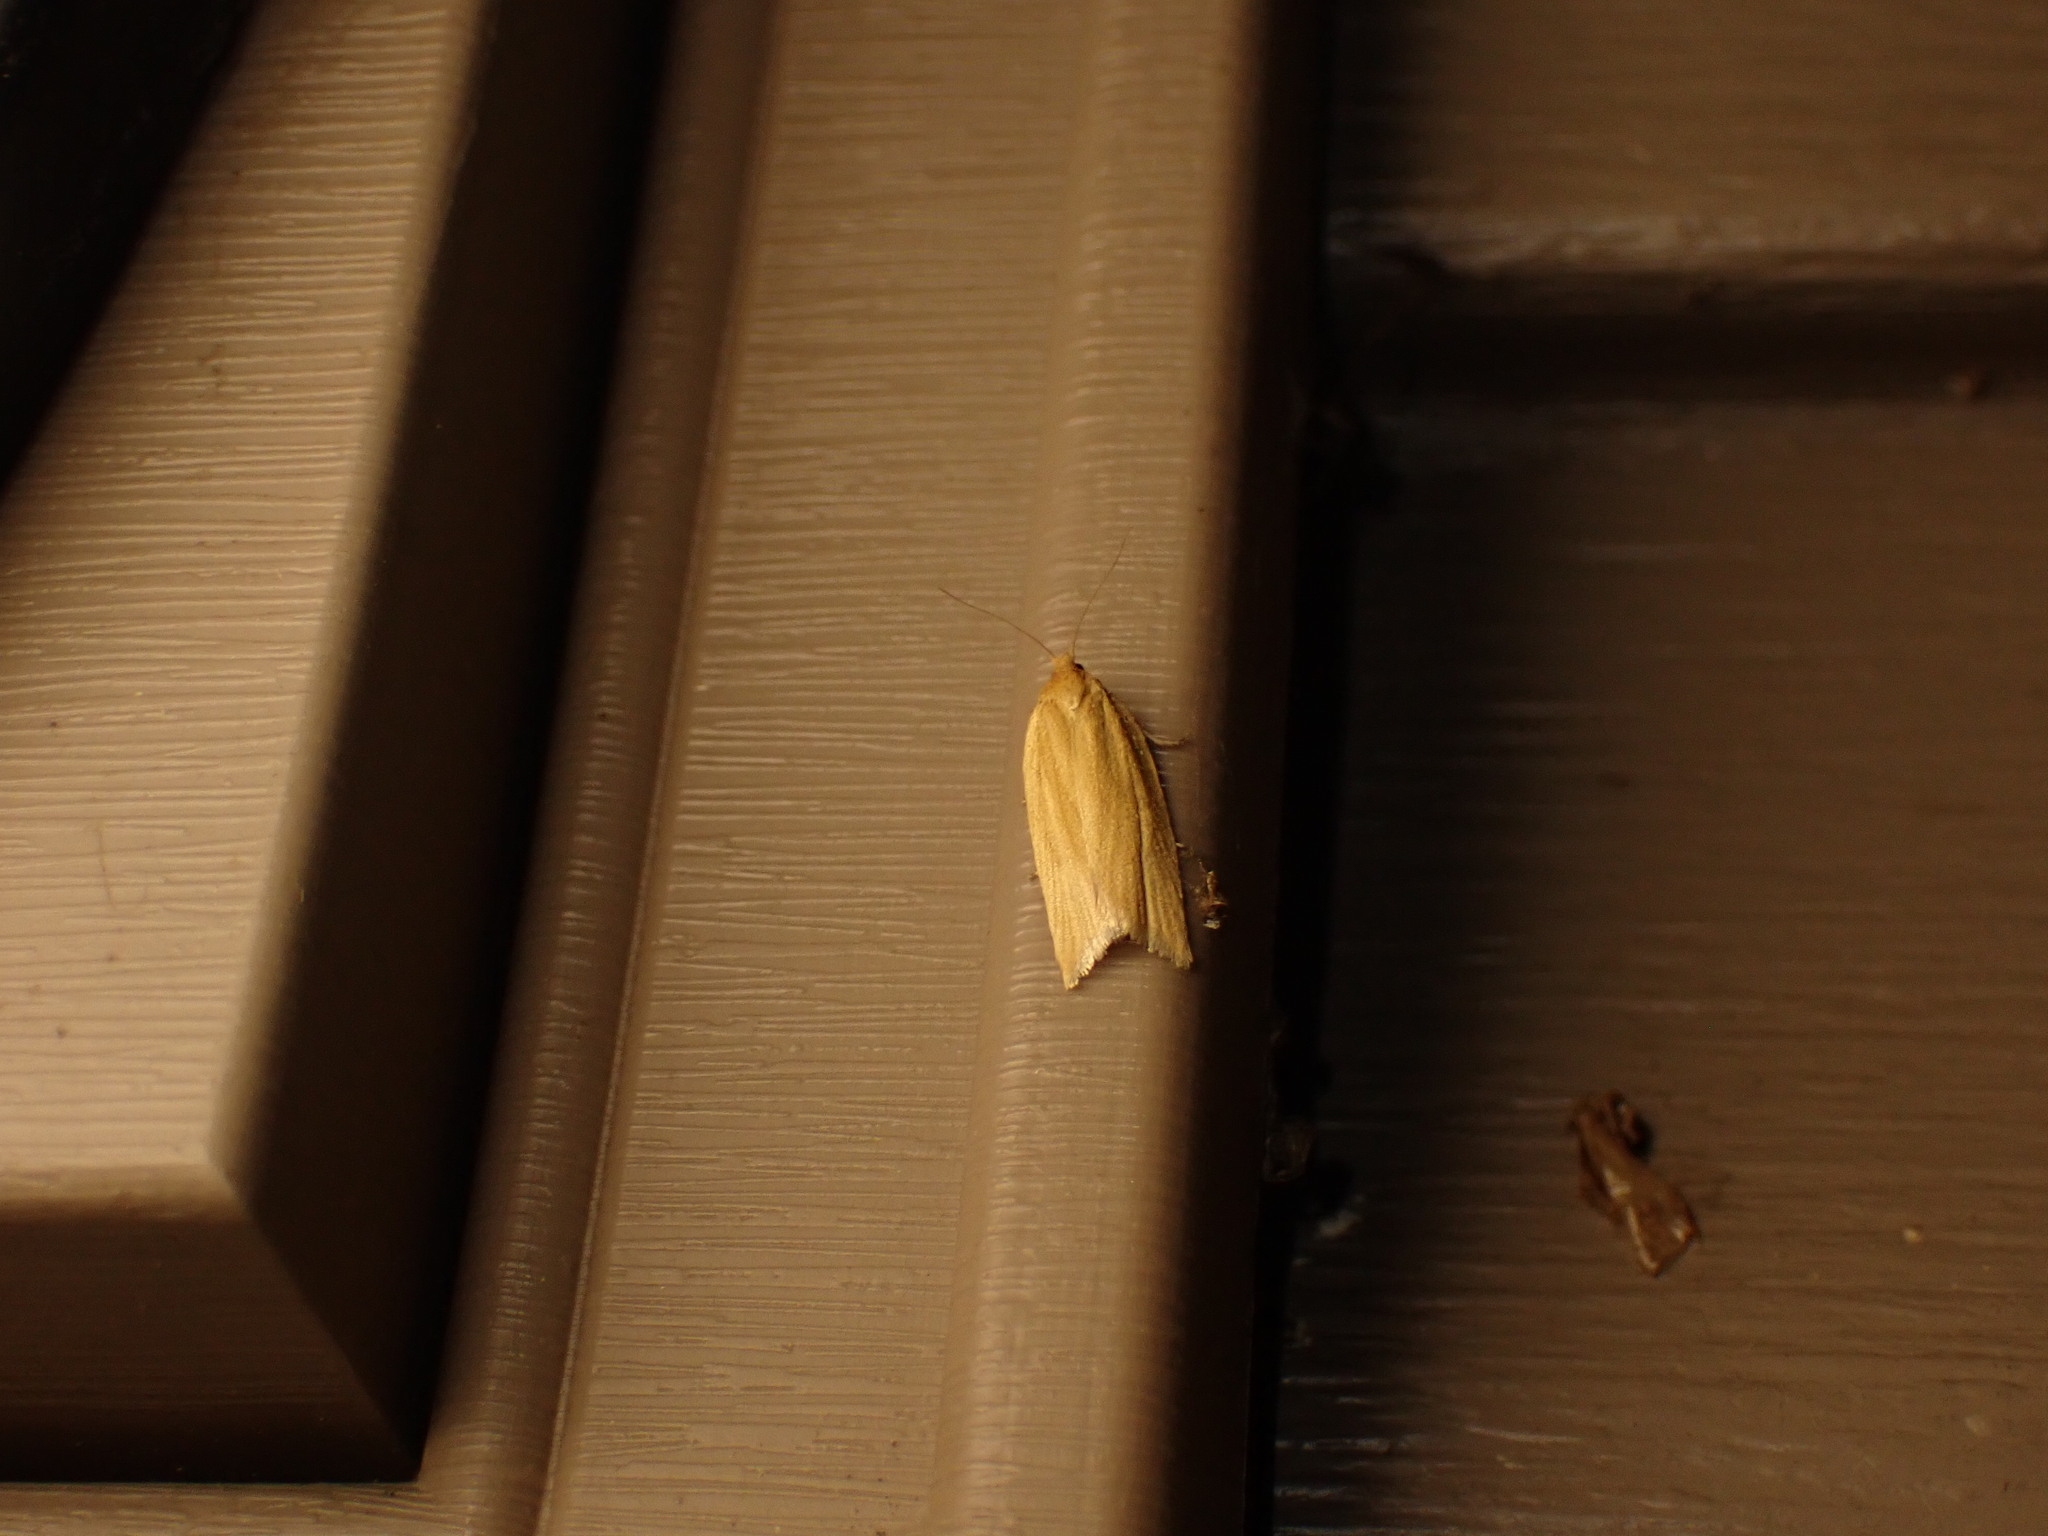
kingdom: Animalia
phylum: Arthropoda
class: Insecta
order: Lepidoptera
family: Tortricidae
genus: Clepsis
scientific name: Clepsis clemensiana
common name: Clemens' clepsis moth
